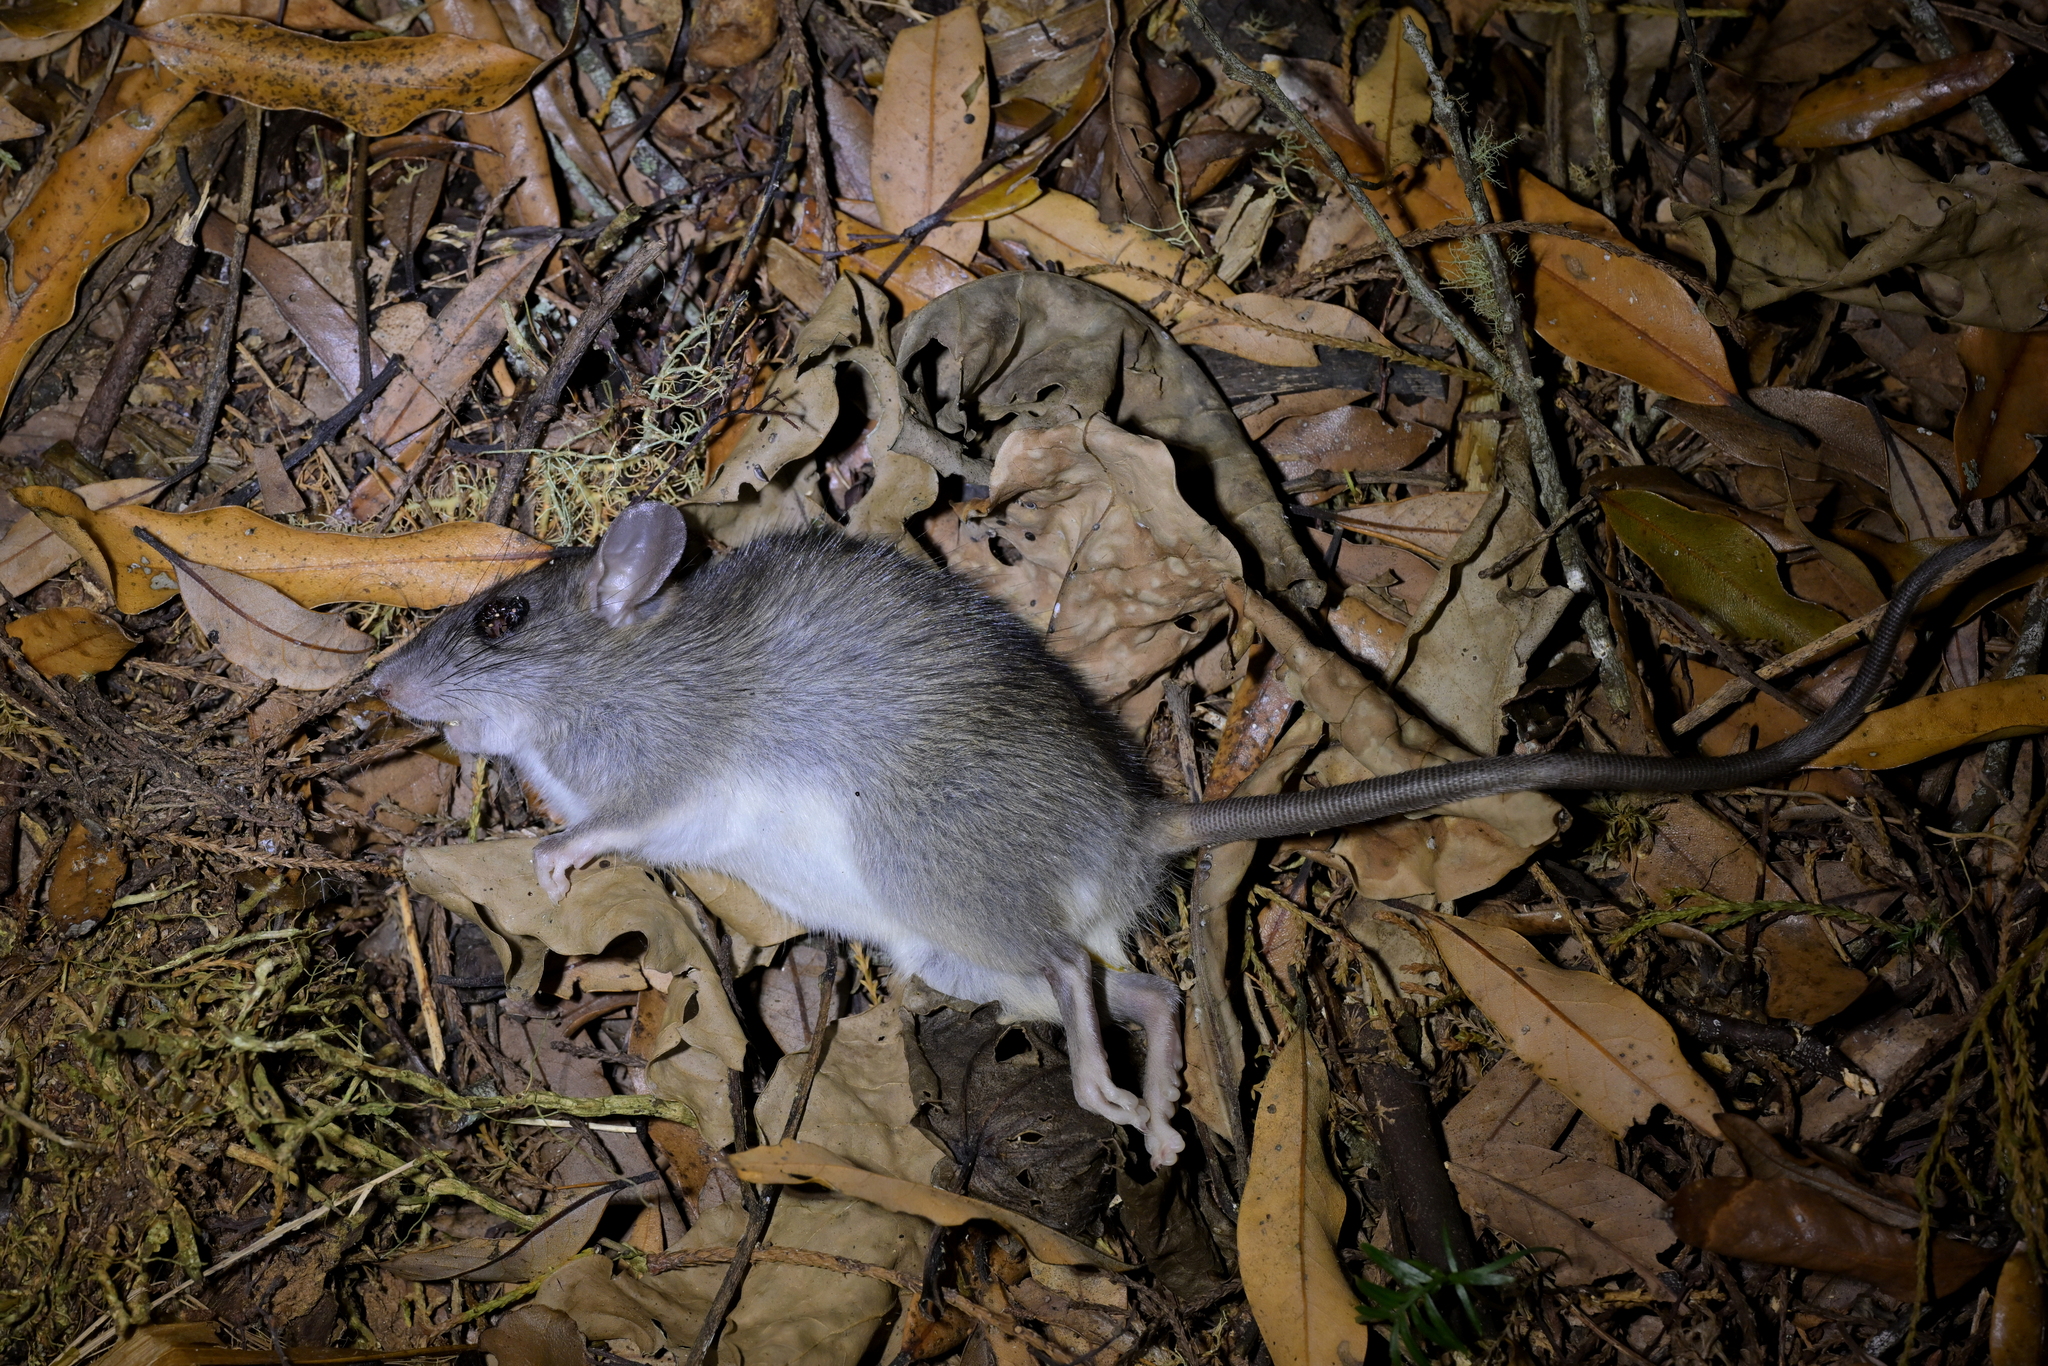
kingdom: Animalia
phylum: Chordata
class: Mammalia
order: Rodentia
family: Muridae
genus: Rattus
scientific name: Rattus rattus
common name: Black rat
